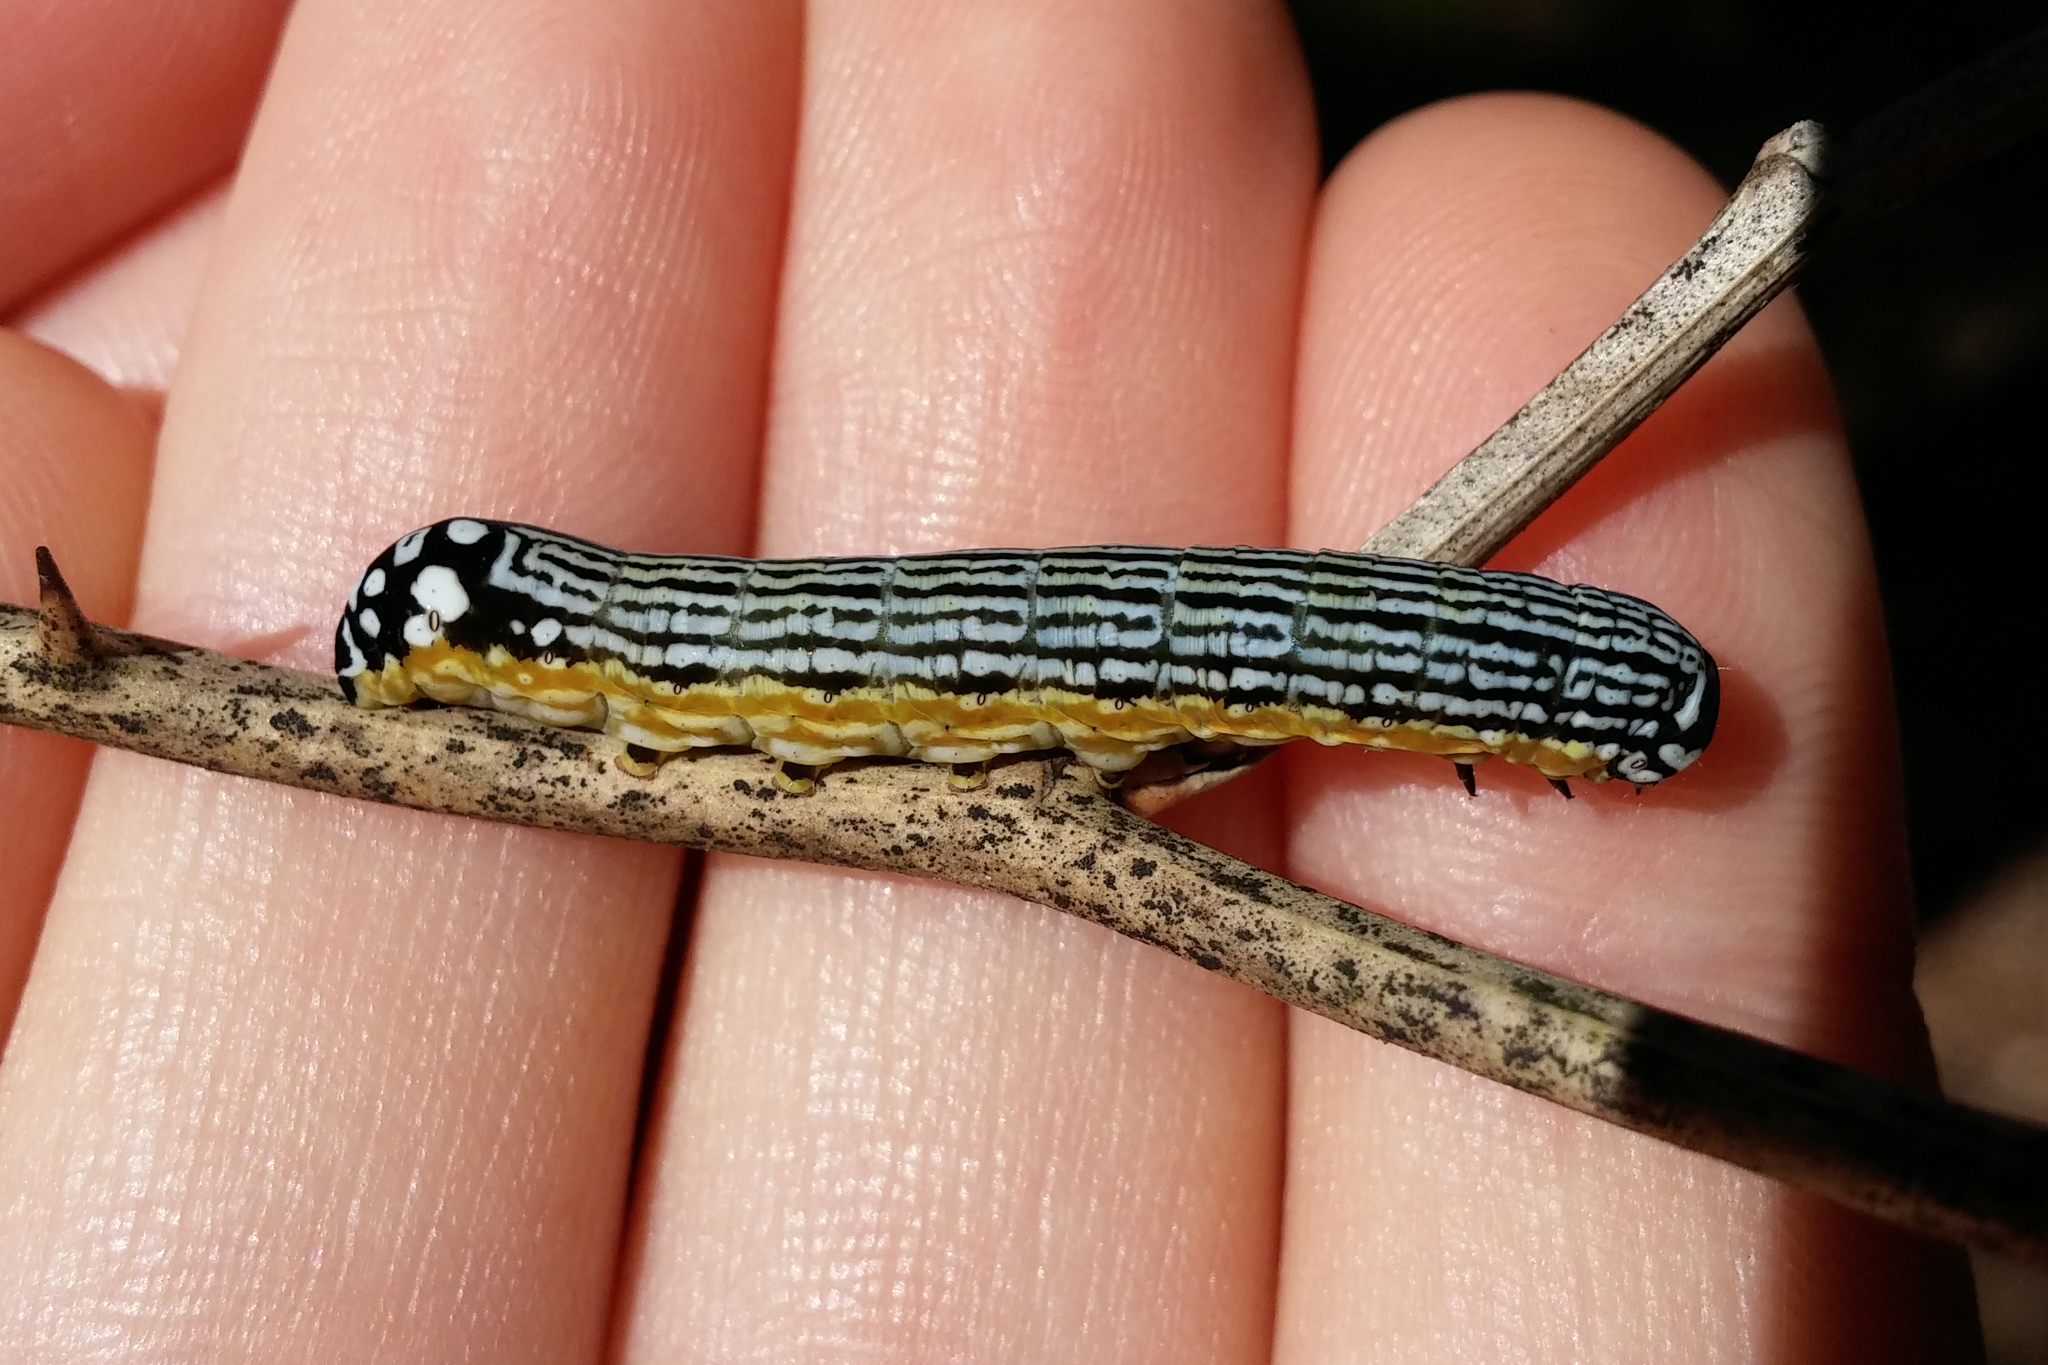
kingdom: Animalia
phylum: Arthropoda
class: Insecta
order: Lepidoptera
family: Noctuidae
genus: Phosphila
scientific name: Phosphila turbulenta
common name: Turbulent phosphila moth
